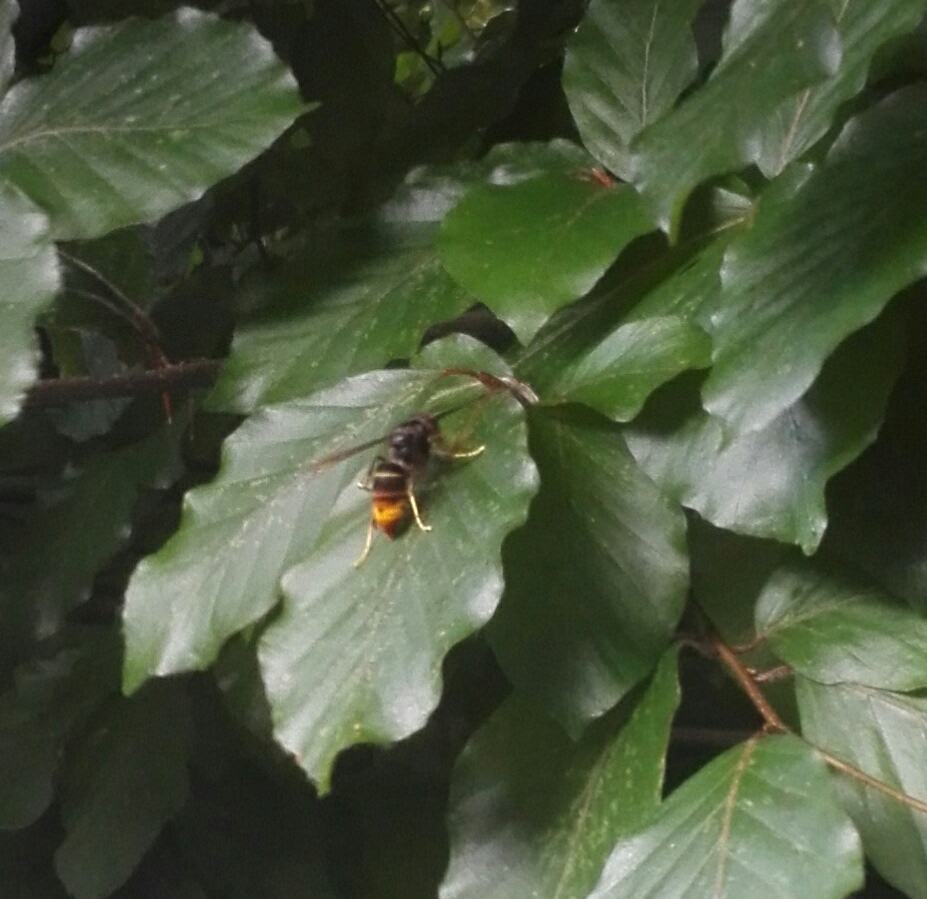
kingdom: Animalia
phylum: Arthropoda
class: Insecta
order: Hymenoptera
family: Vespidae
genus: Vespa
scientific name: Vespa velutina
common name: Asian hornet
